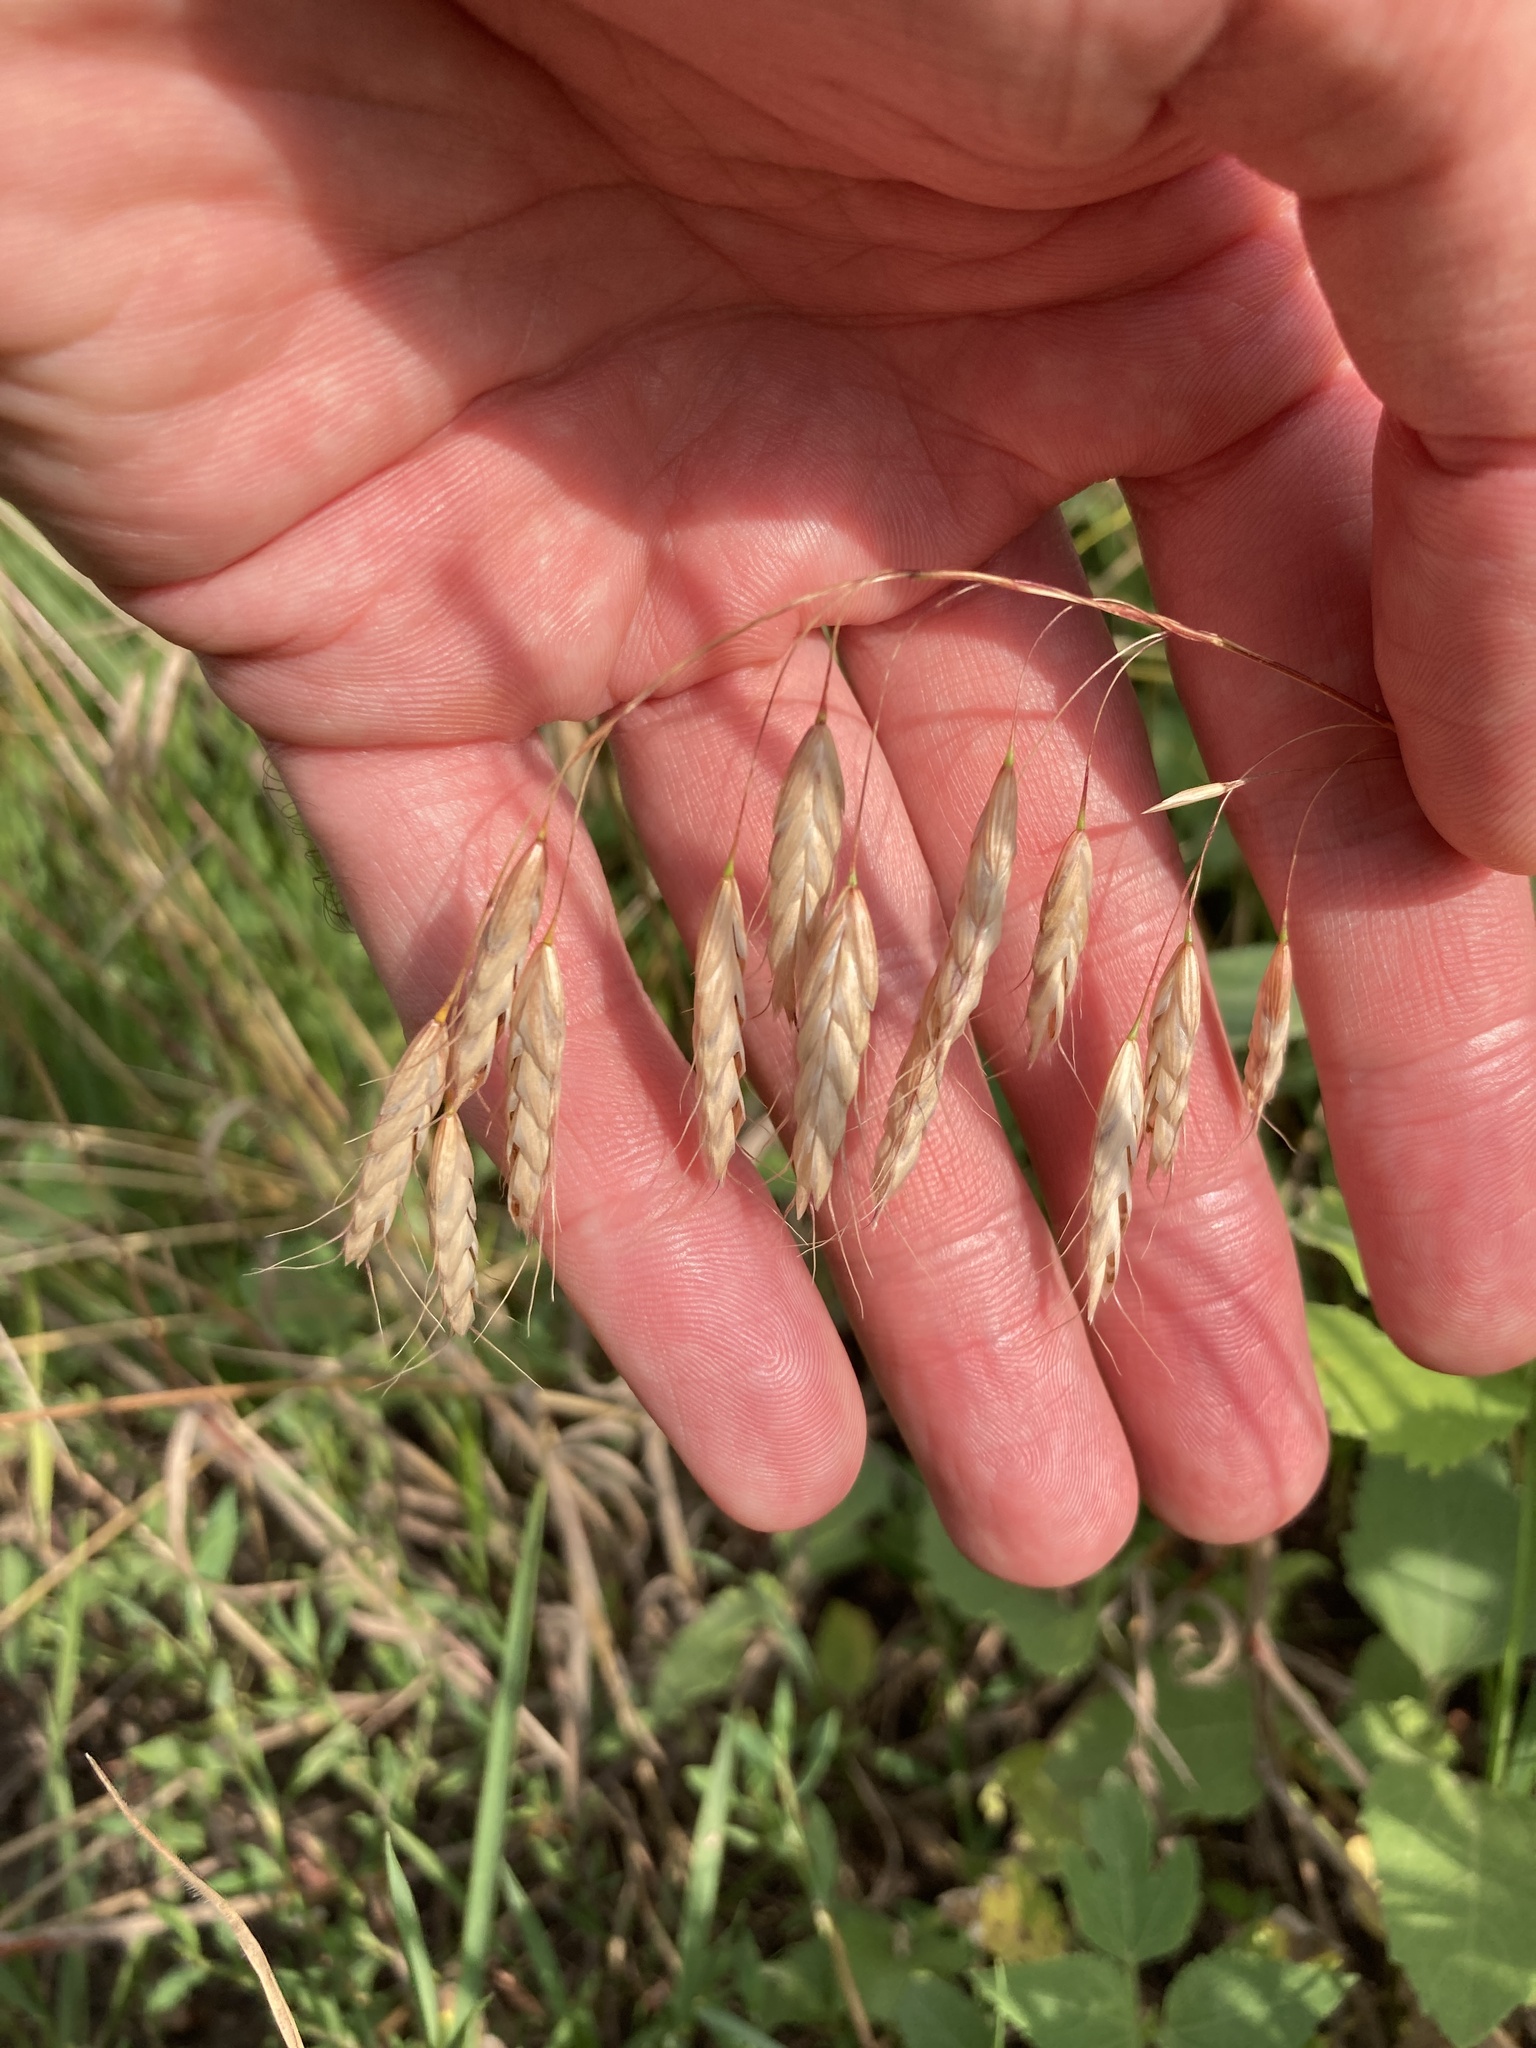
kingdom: Plantae
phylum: Tracheophyta
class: Liliopsida
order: Poales
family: Poaceae
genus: Bromus
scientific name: Bromus squarrosus
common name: Corn brome
